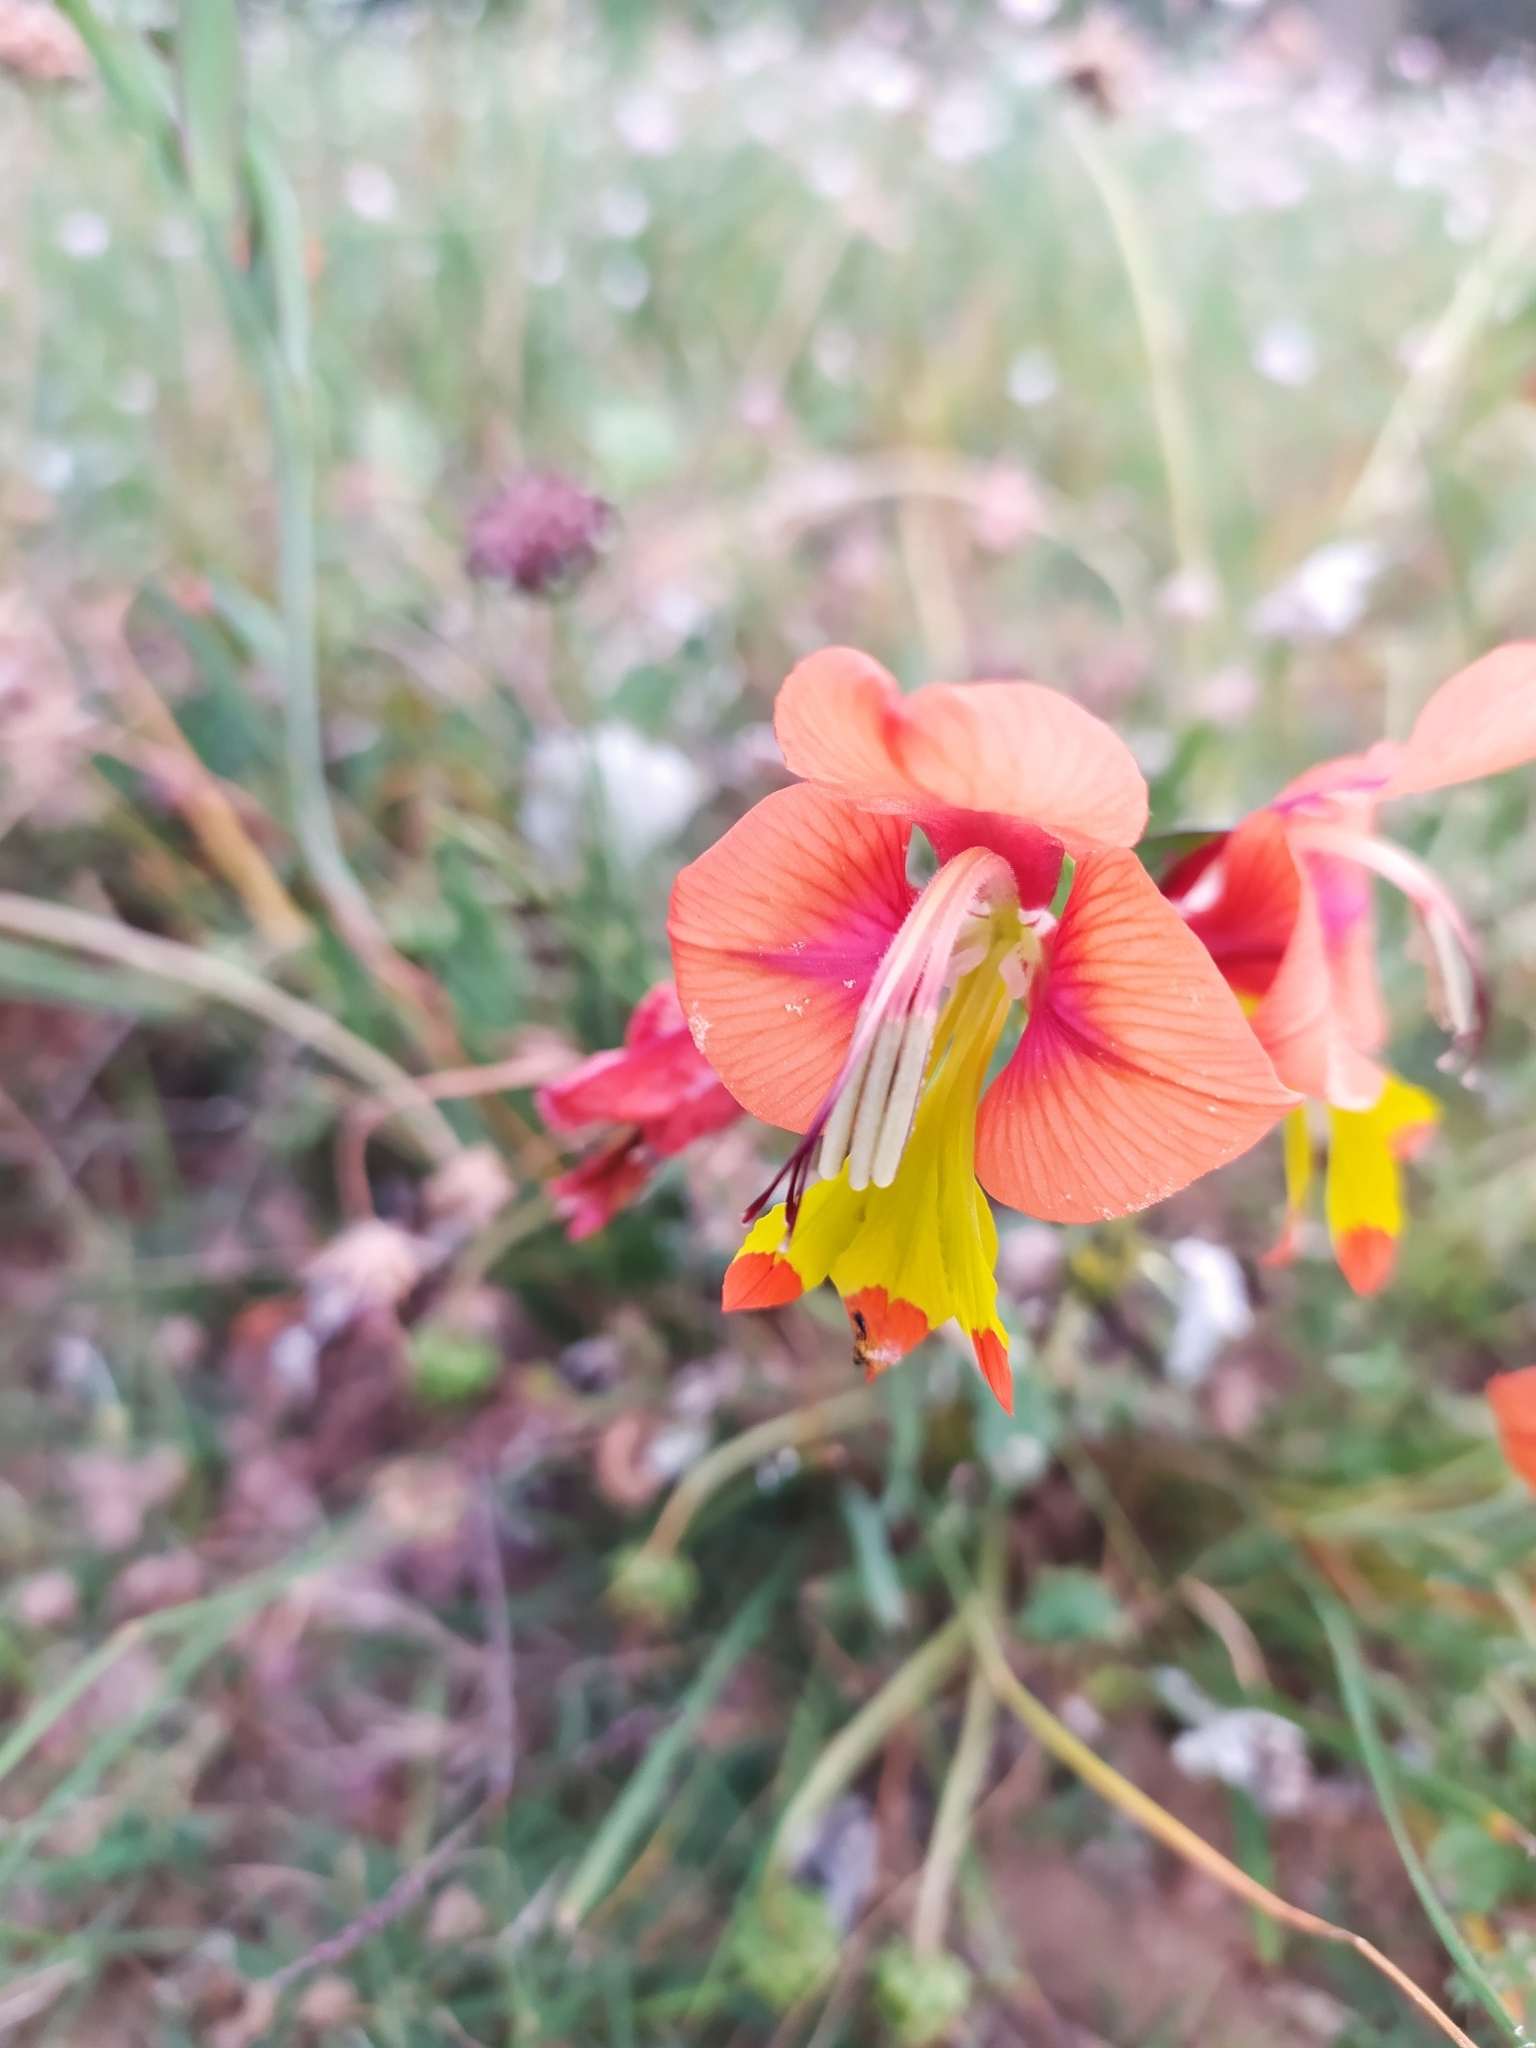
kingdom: Plantae
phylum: Tracheophyta
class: Liliopsida
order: Asparagales
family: Iridaceae
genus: Gladiolus
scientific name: Gladiolus alatus
